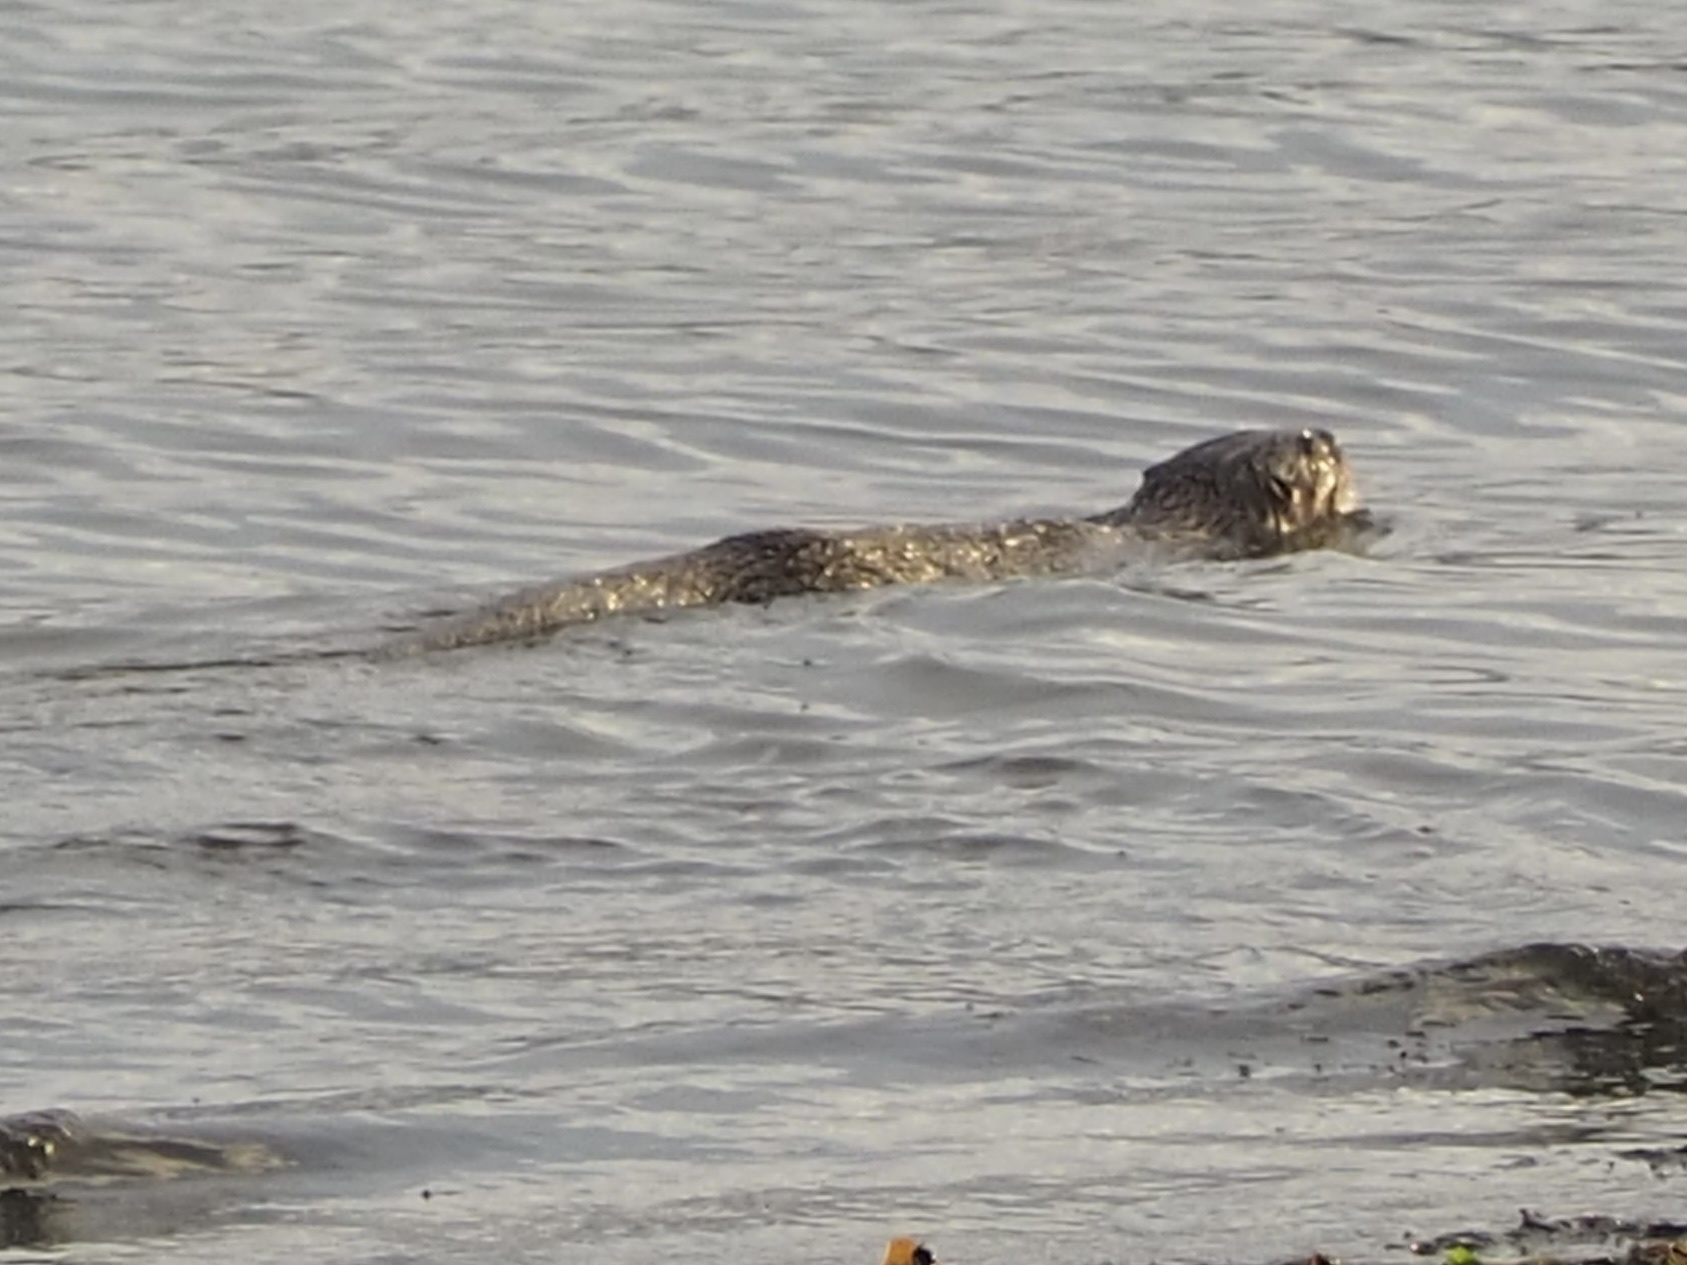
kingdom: Animalia
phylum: Chordata
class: Mammalia
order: Carnivora
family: Mustelidae
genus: Lontra
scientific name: Lontra canadensis
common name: North american river otter
